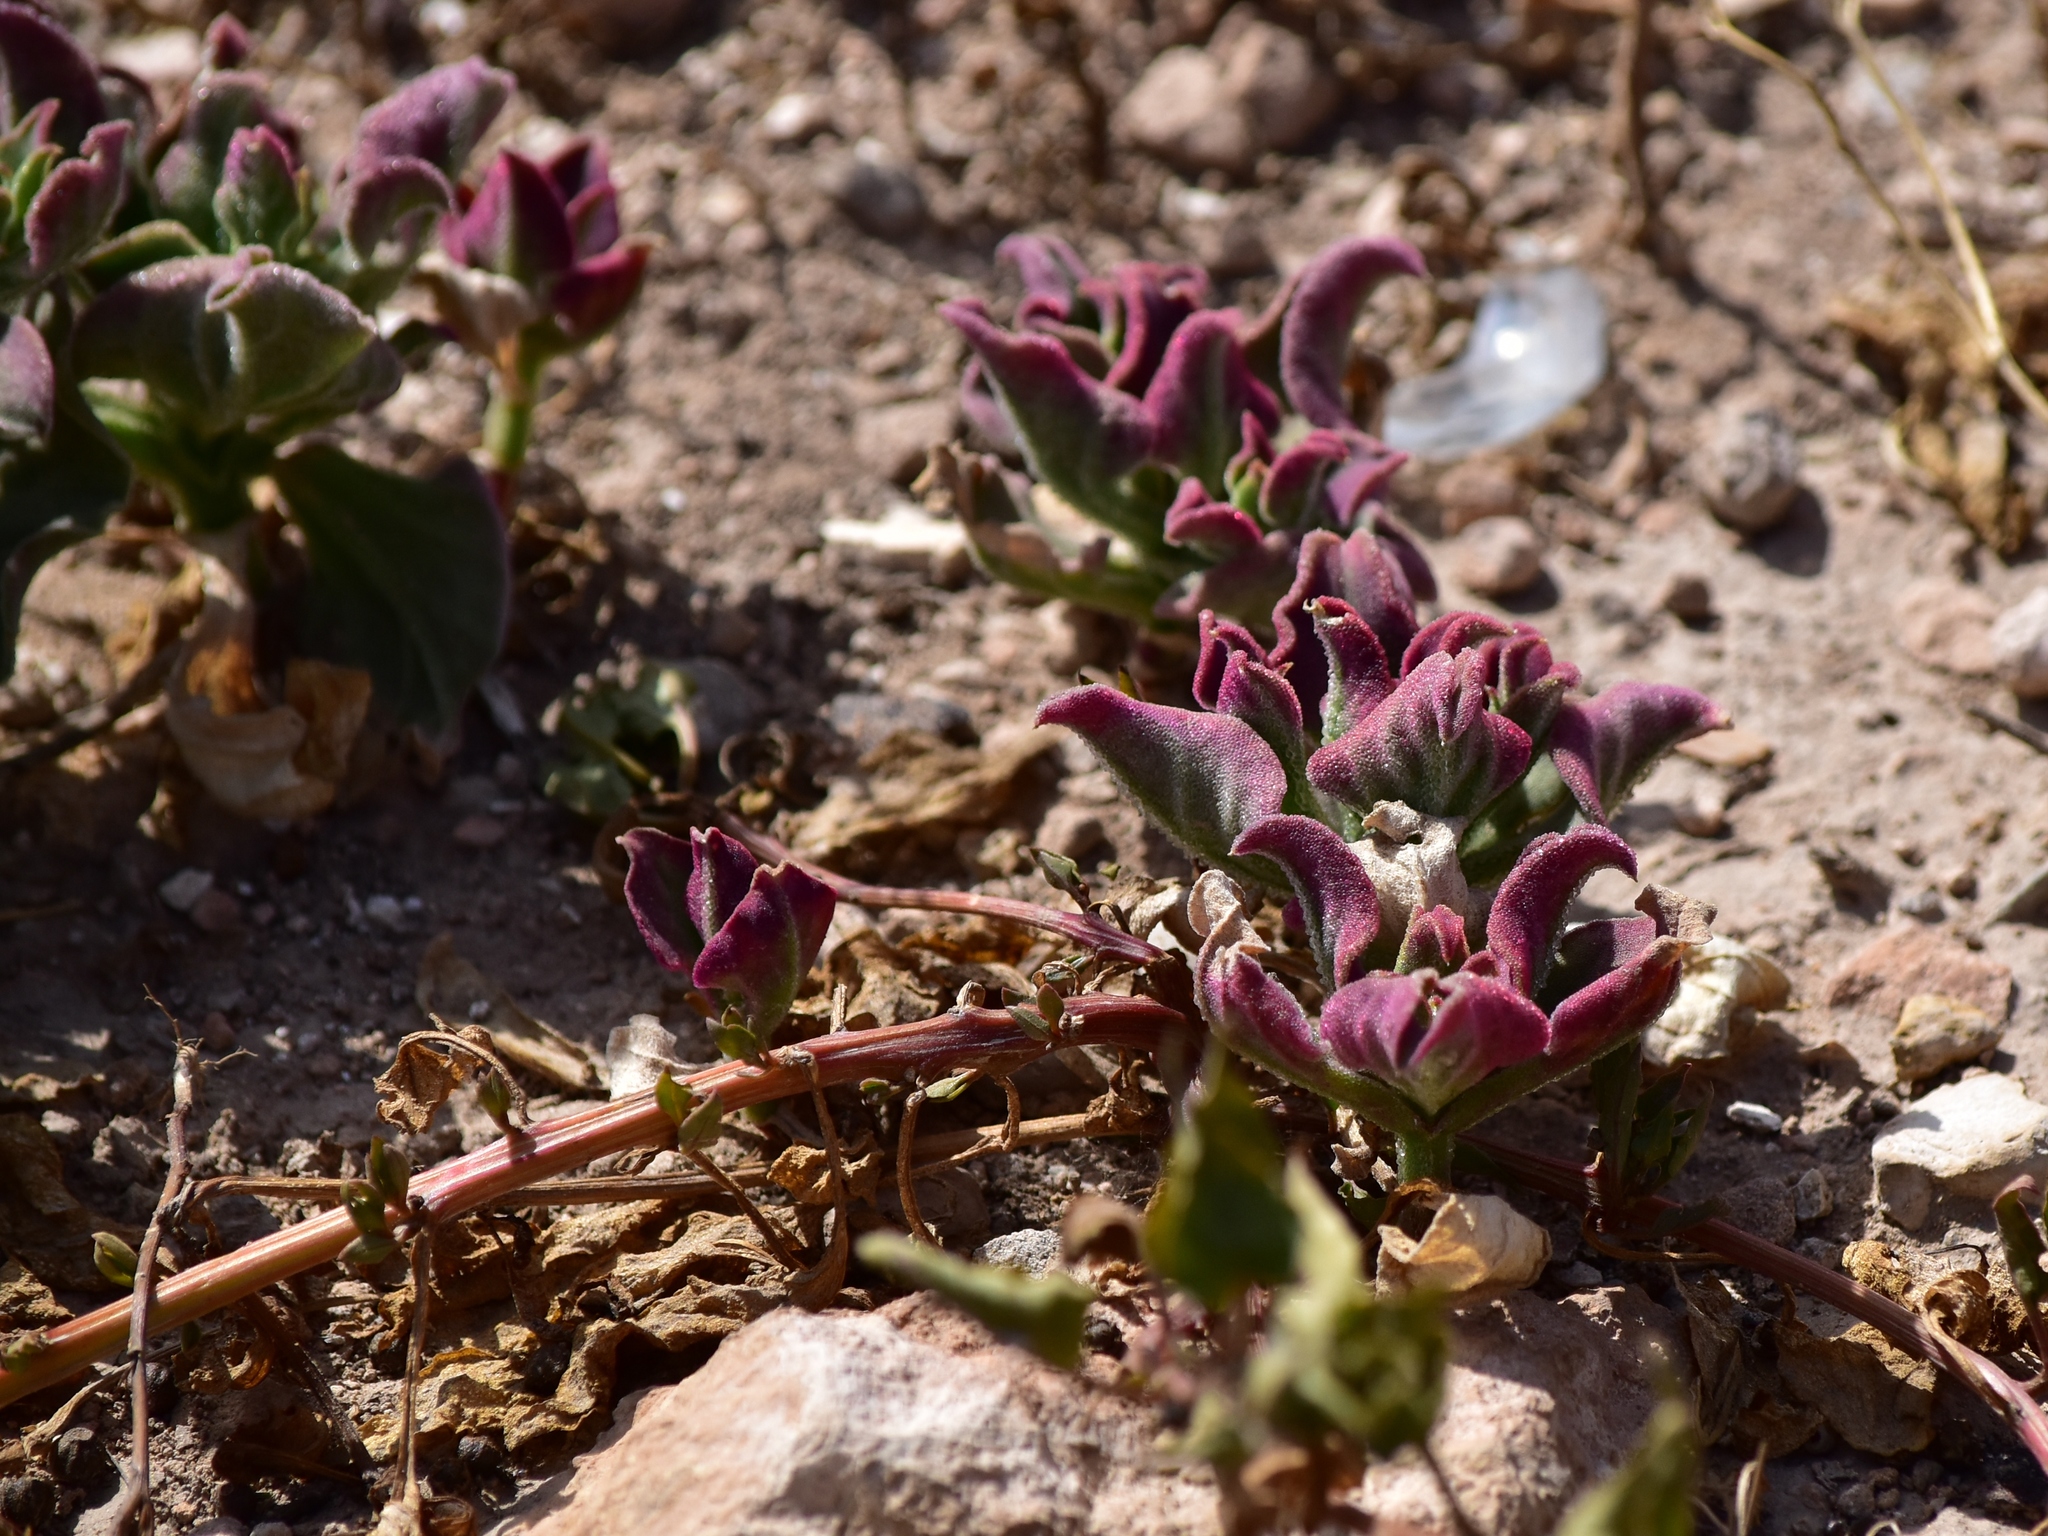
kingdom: Plantae
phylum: Tracheophyta
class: Magnoliopsida
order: Caryophyllales
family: Aizoaceae
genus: Mesembryanthemum
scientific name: Mesembryanthemum crystallinum
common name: Common iceplant
